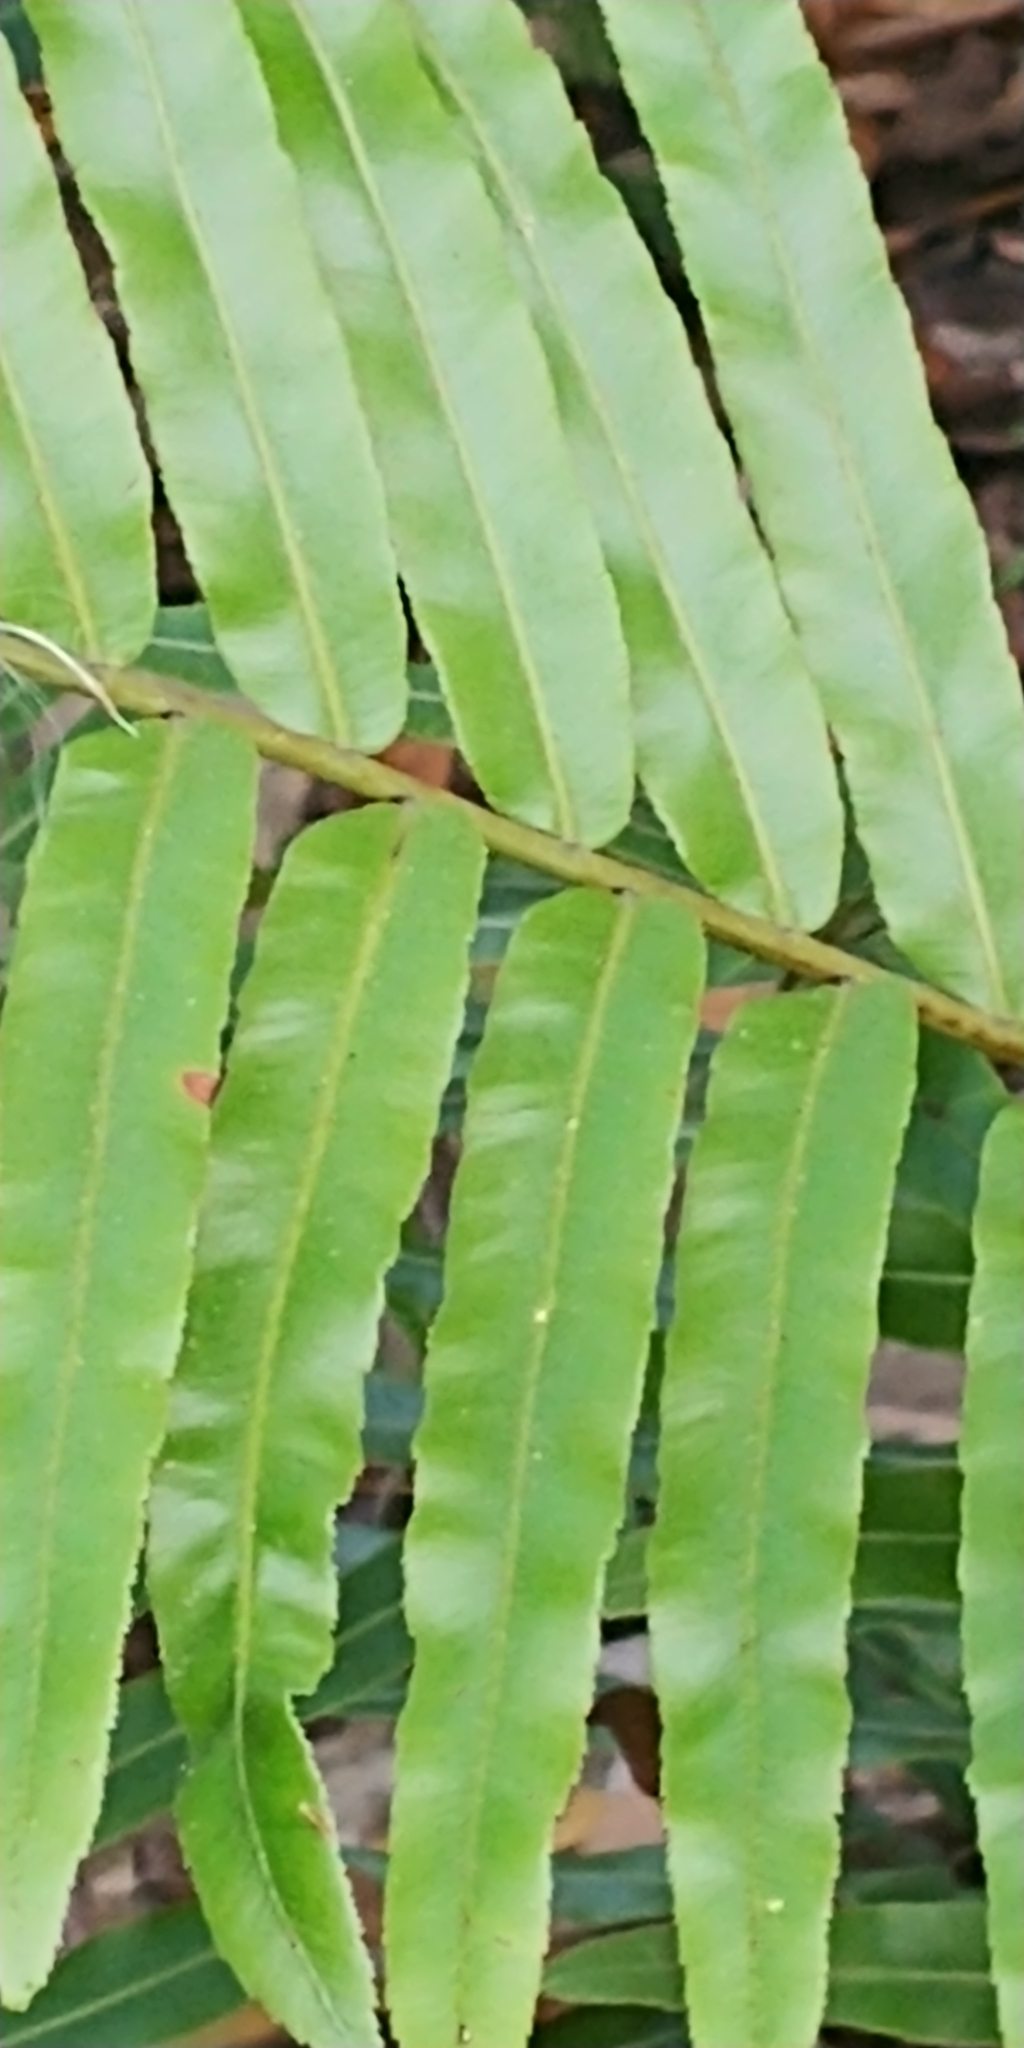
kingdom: Plantae
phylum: Tracheophyta
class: Polypodiopsida
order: Polypodiales
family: Blechnaceae
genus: Telmatoblechnum
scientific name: Telmatoblechnum serrulatum
